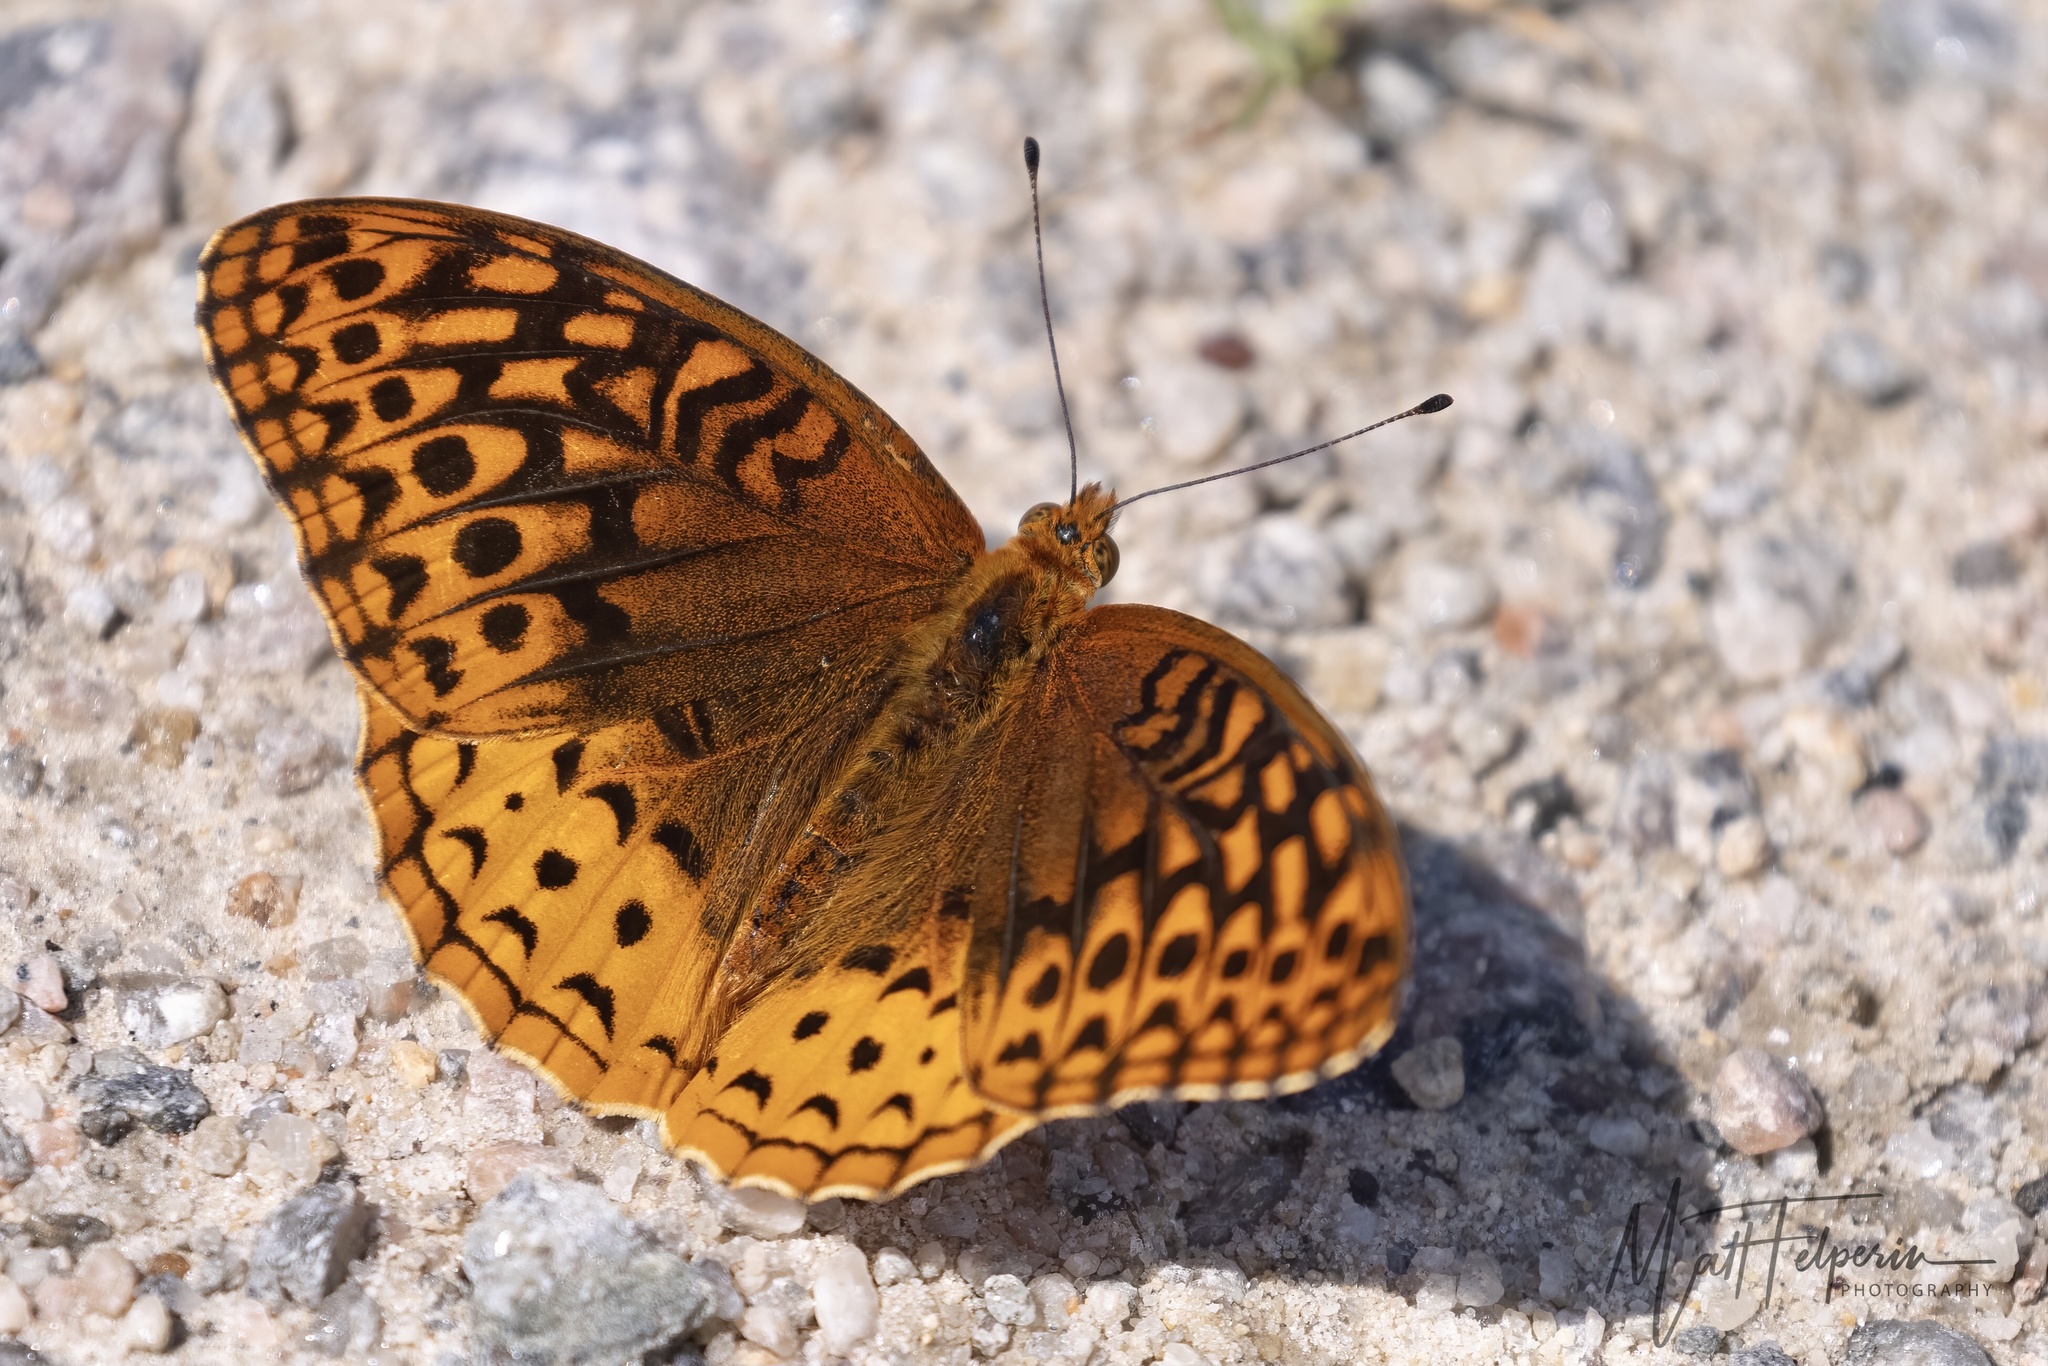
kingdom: Animalia
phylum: Arthropoda
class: Insecta
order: Lepidoptera
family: Nymphalidae
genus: Speyeria
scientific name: Speyeria cybele
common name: Great spangled fritillary
